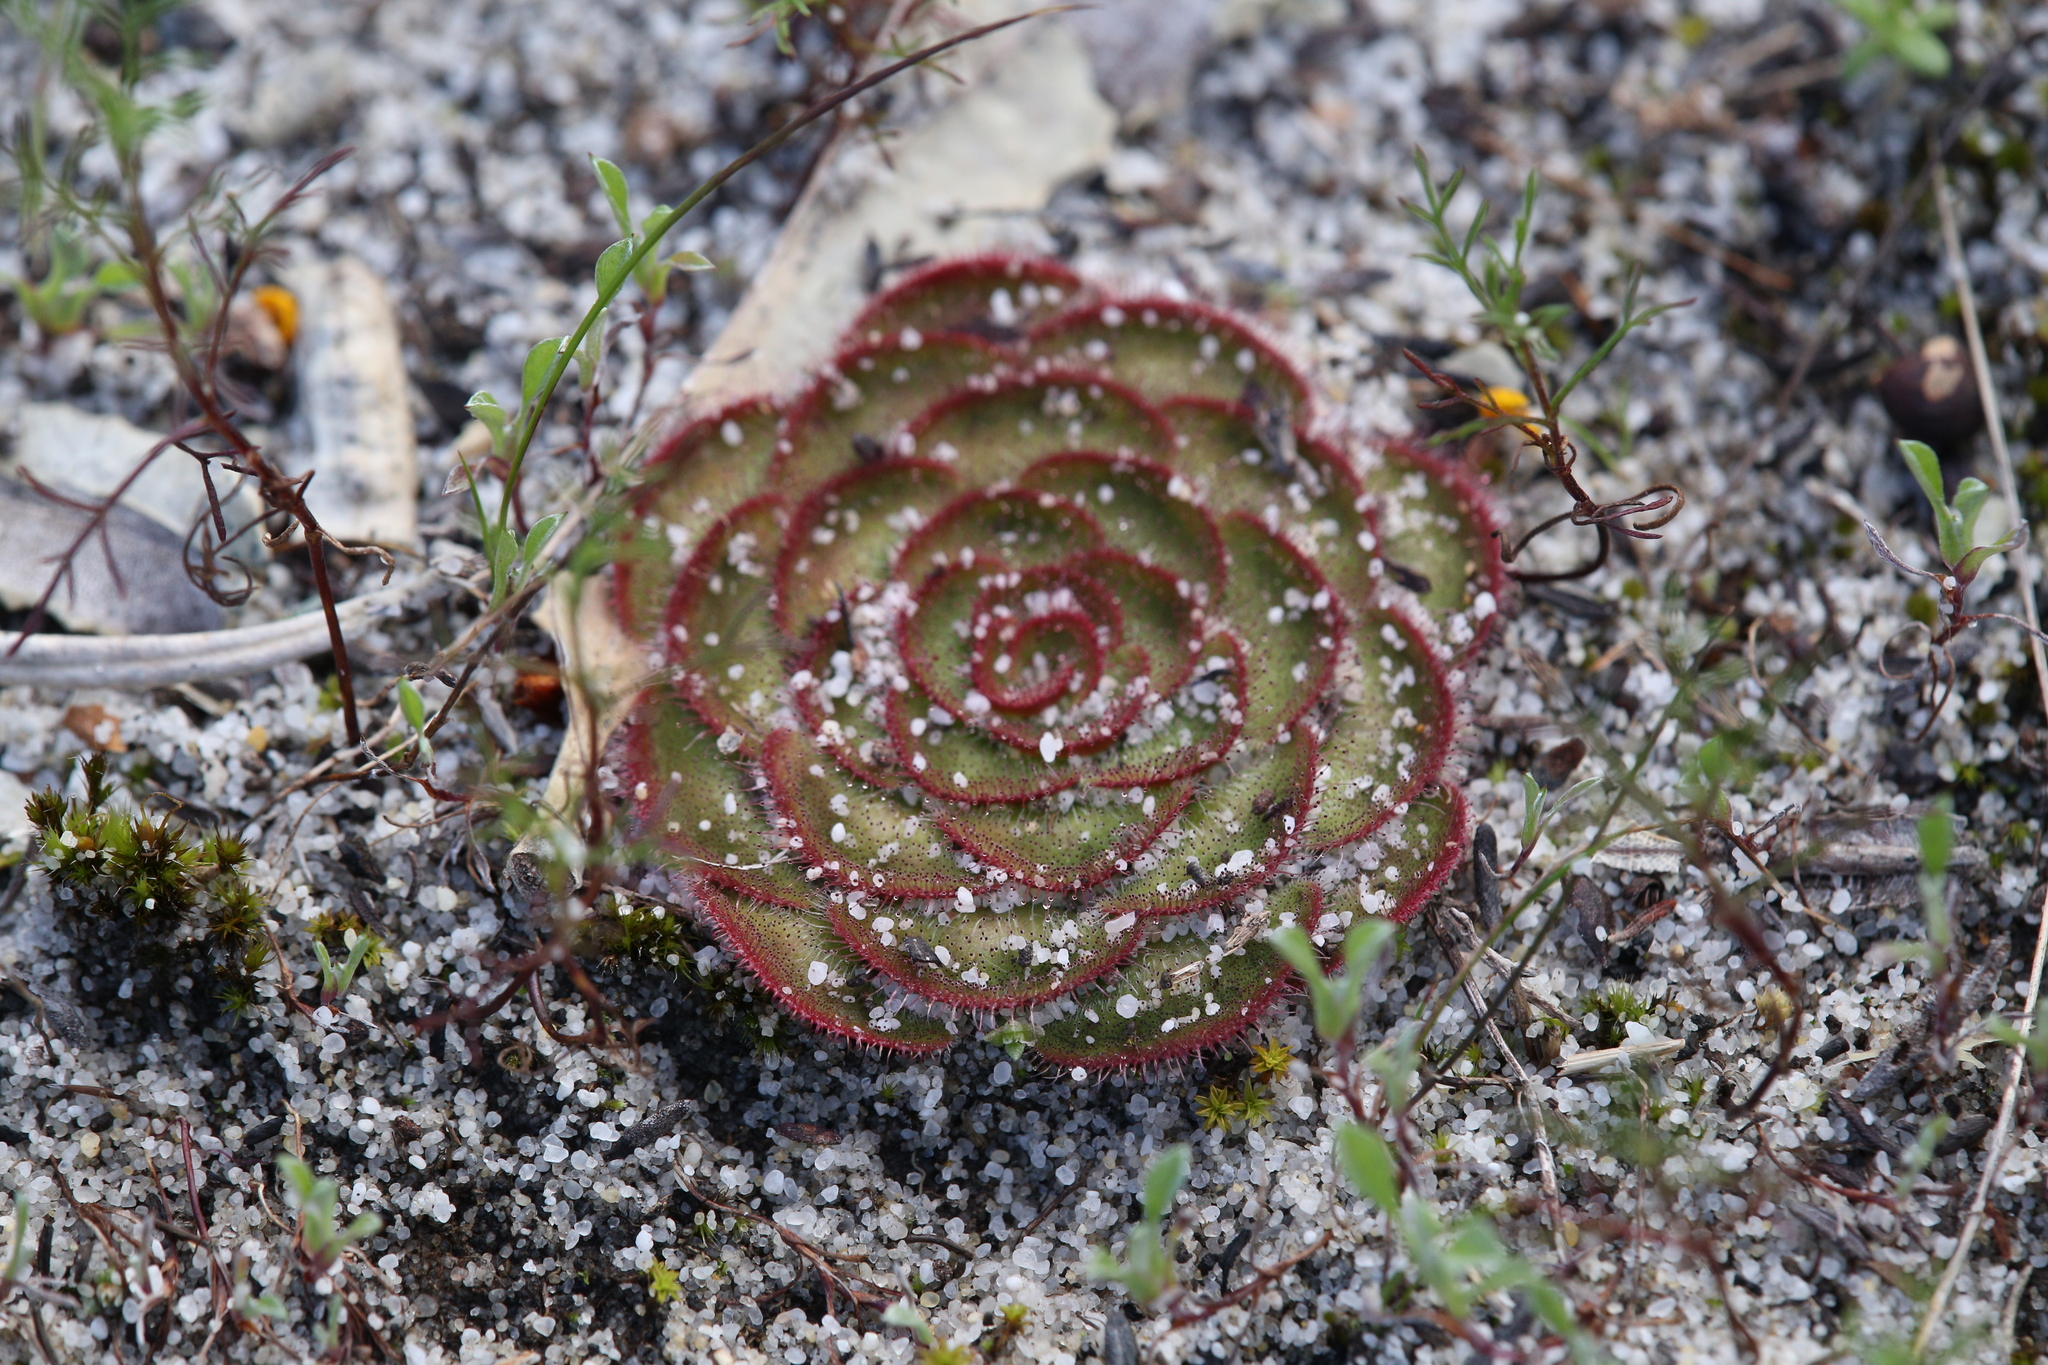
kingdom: Plantae
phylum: Tracheophyta
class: Magnoliopsida
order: Caryophyllales
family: Droseraceae
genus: Drosera
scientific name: Drosera zonaria
